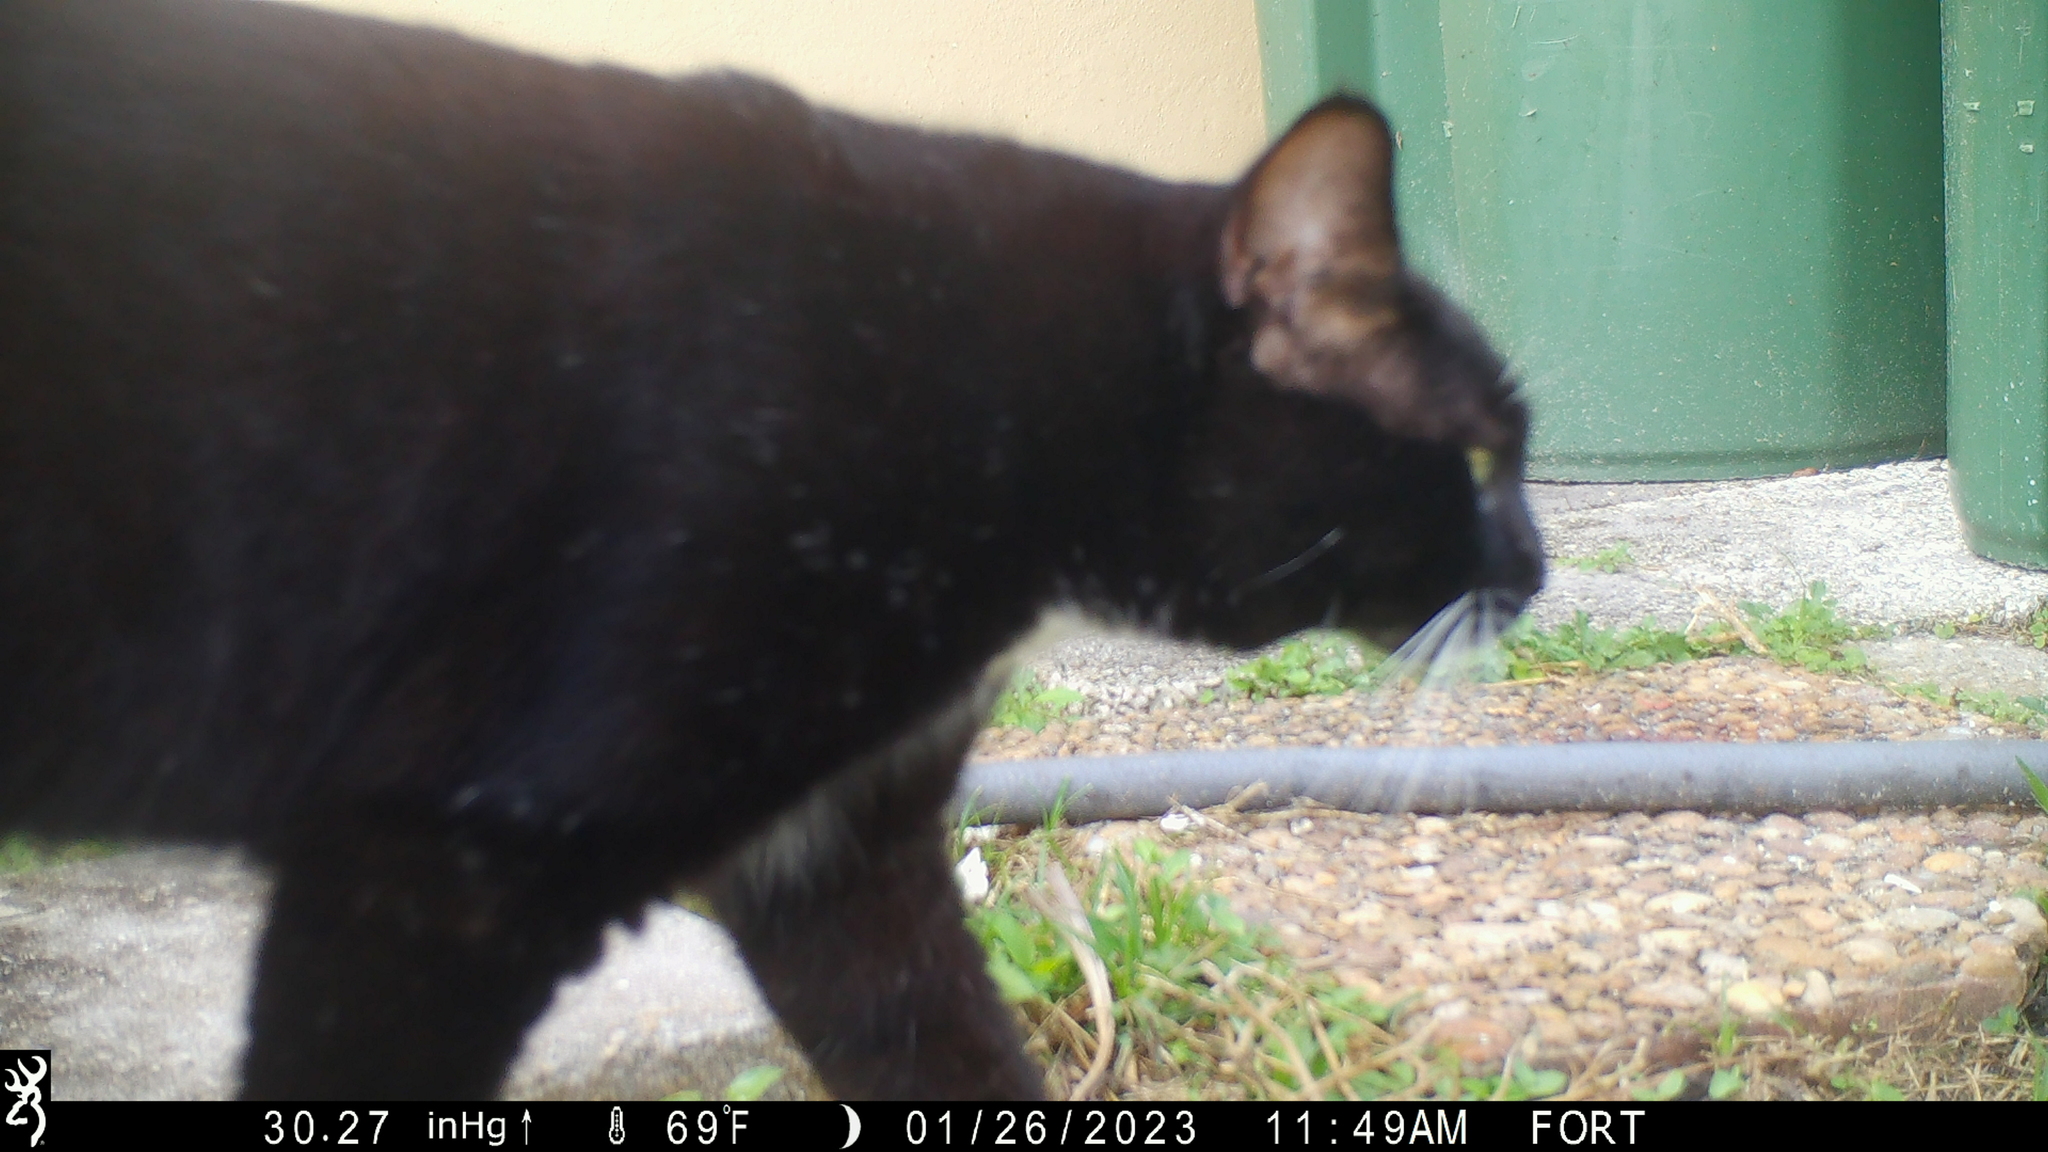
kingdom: Animalia
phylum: Chordata
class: Mammalia
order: Carnivora
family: Felidae
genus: Felis
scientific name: Felis catus
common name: Domestic cat
